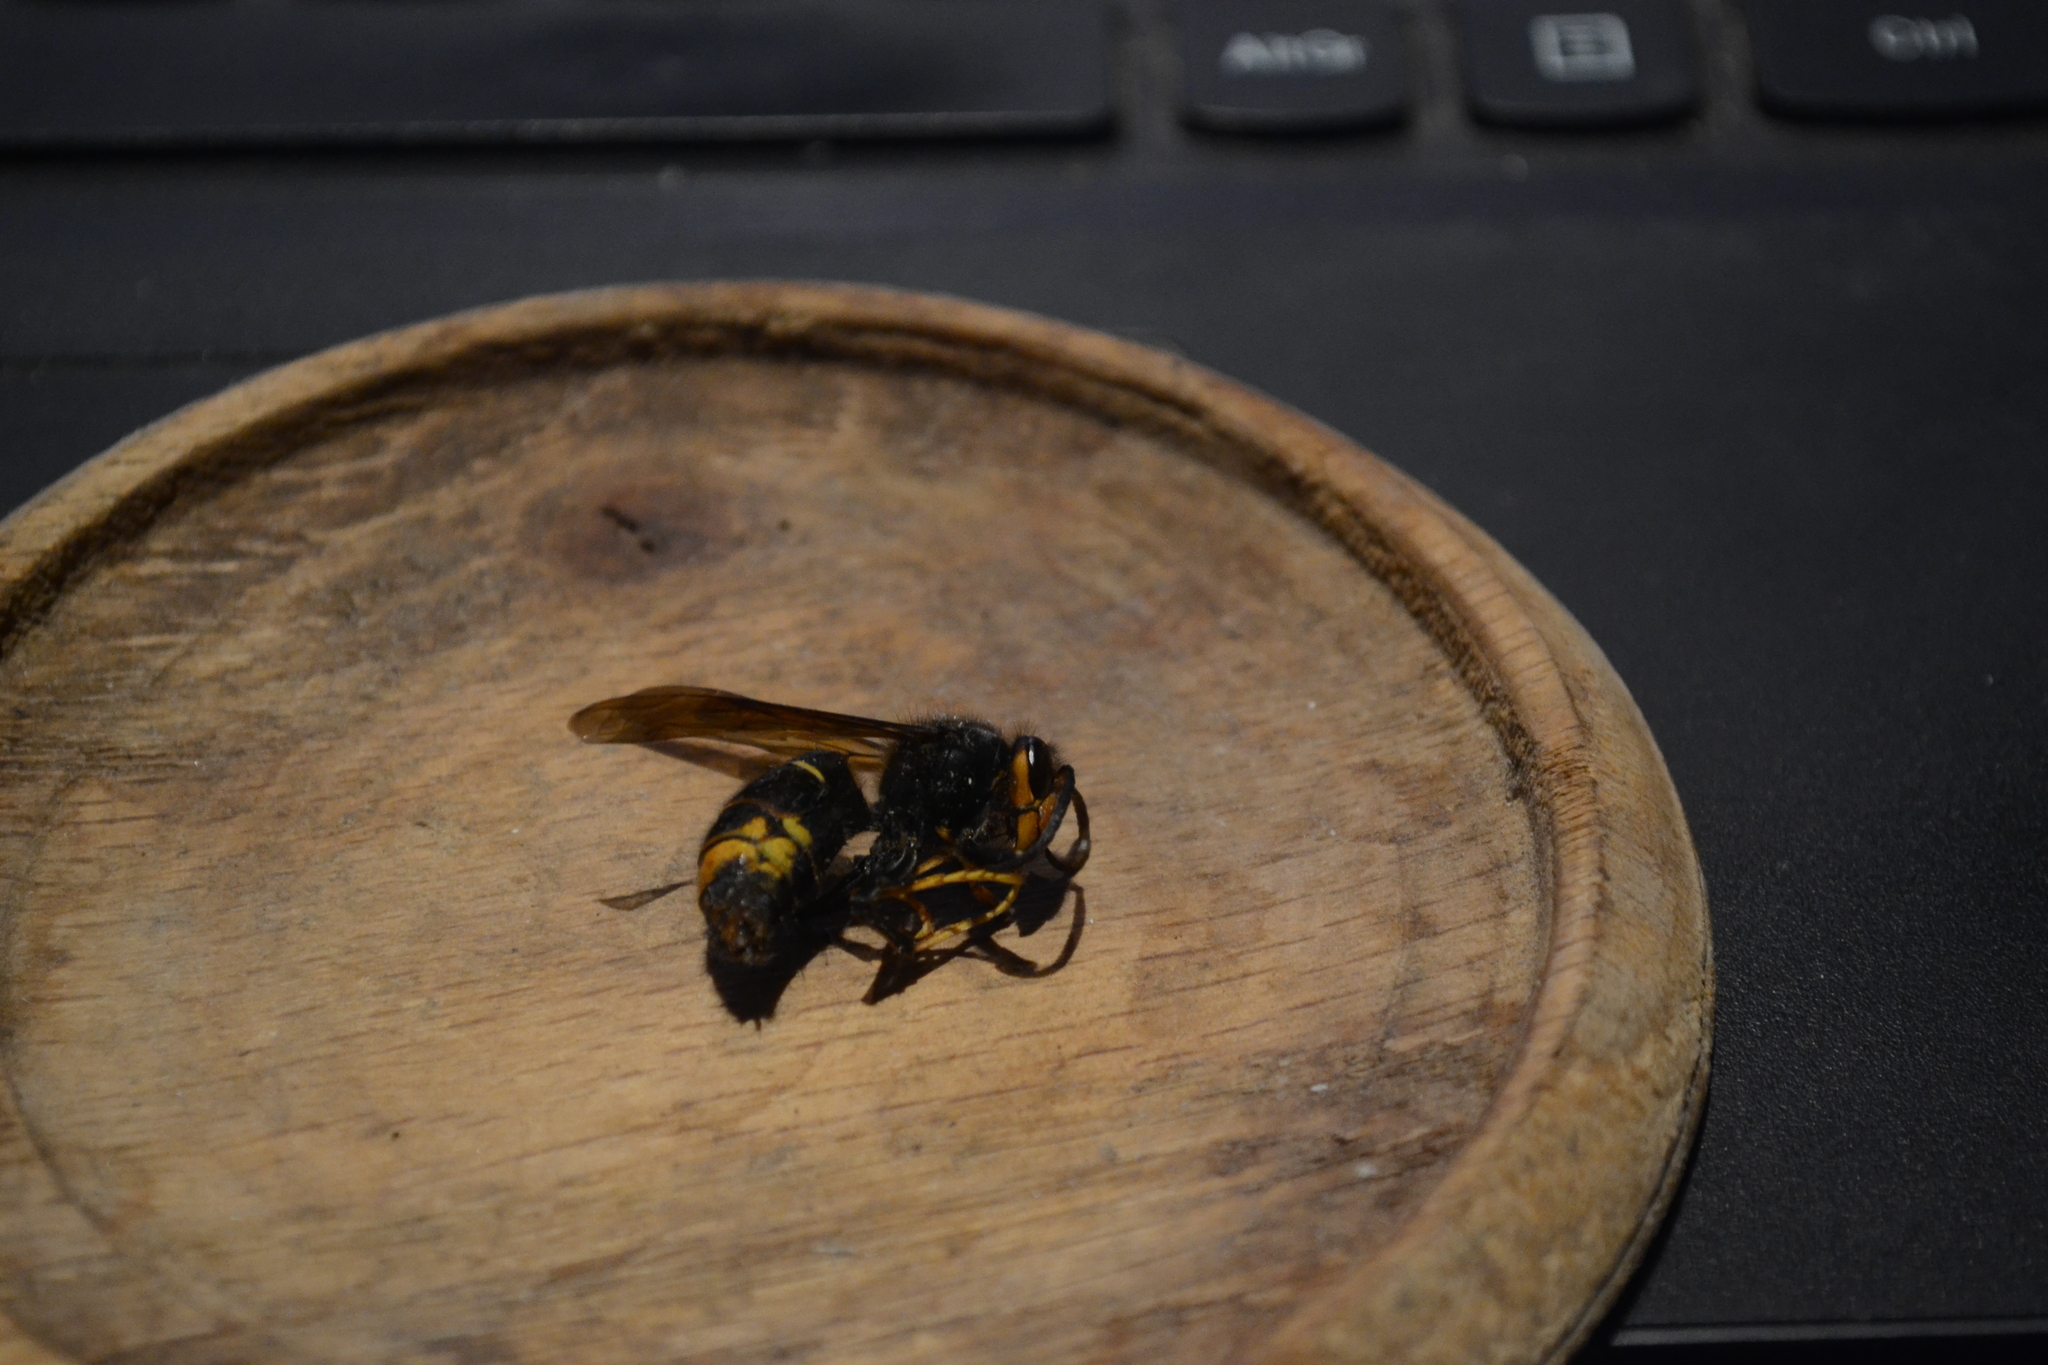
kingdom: Animalia
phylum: Arthropoda
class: Insecta
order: Hymenoptera
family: Vespidae
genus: Vespa
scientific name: Vespa velutina
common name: Asian hornet
